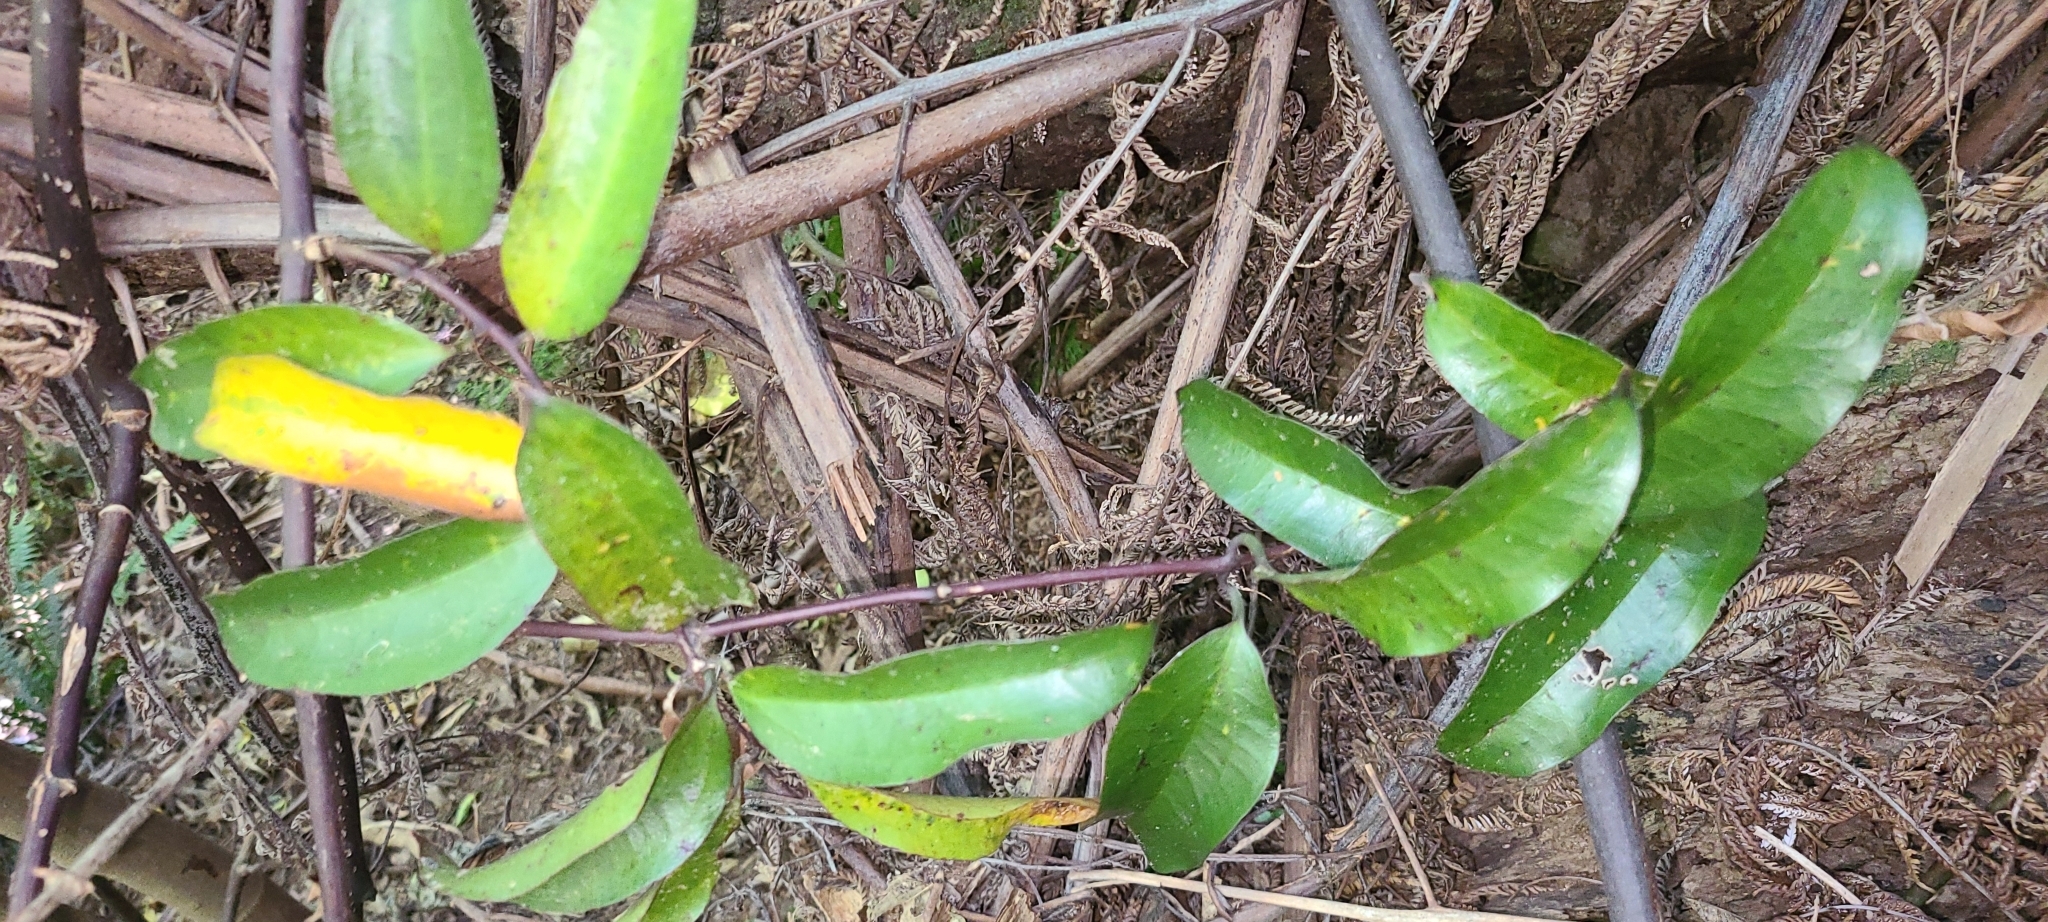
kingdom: Plantae
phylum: Tracheophyta
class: Liliopsida
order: Liliales
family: Ripogonaceae
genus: Ripogonum
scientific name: Ripogonum scandens
